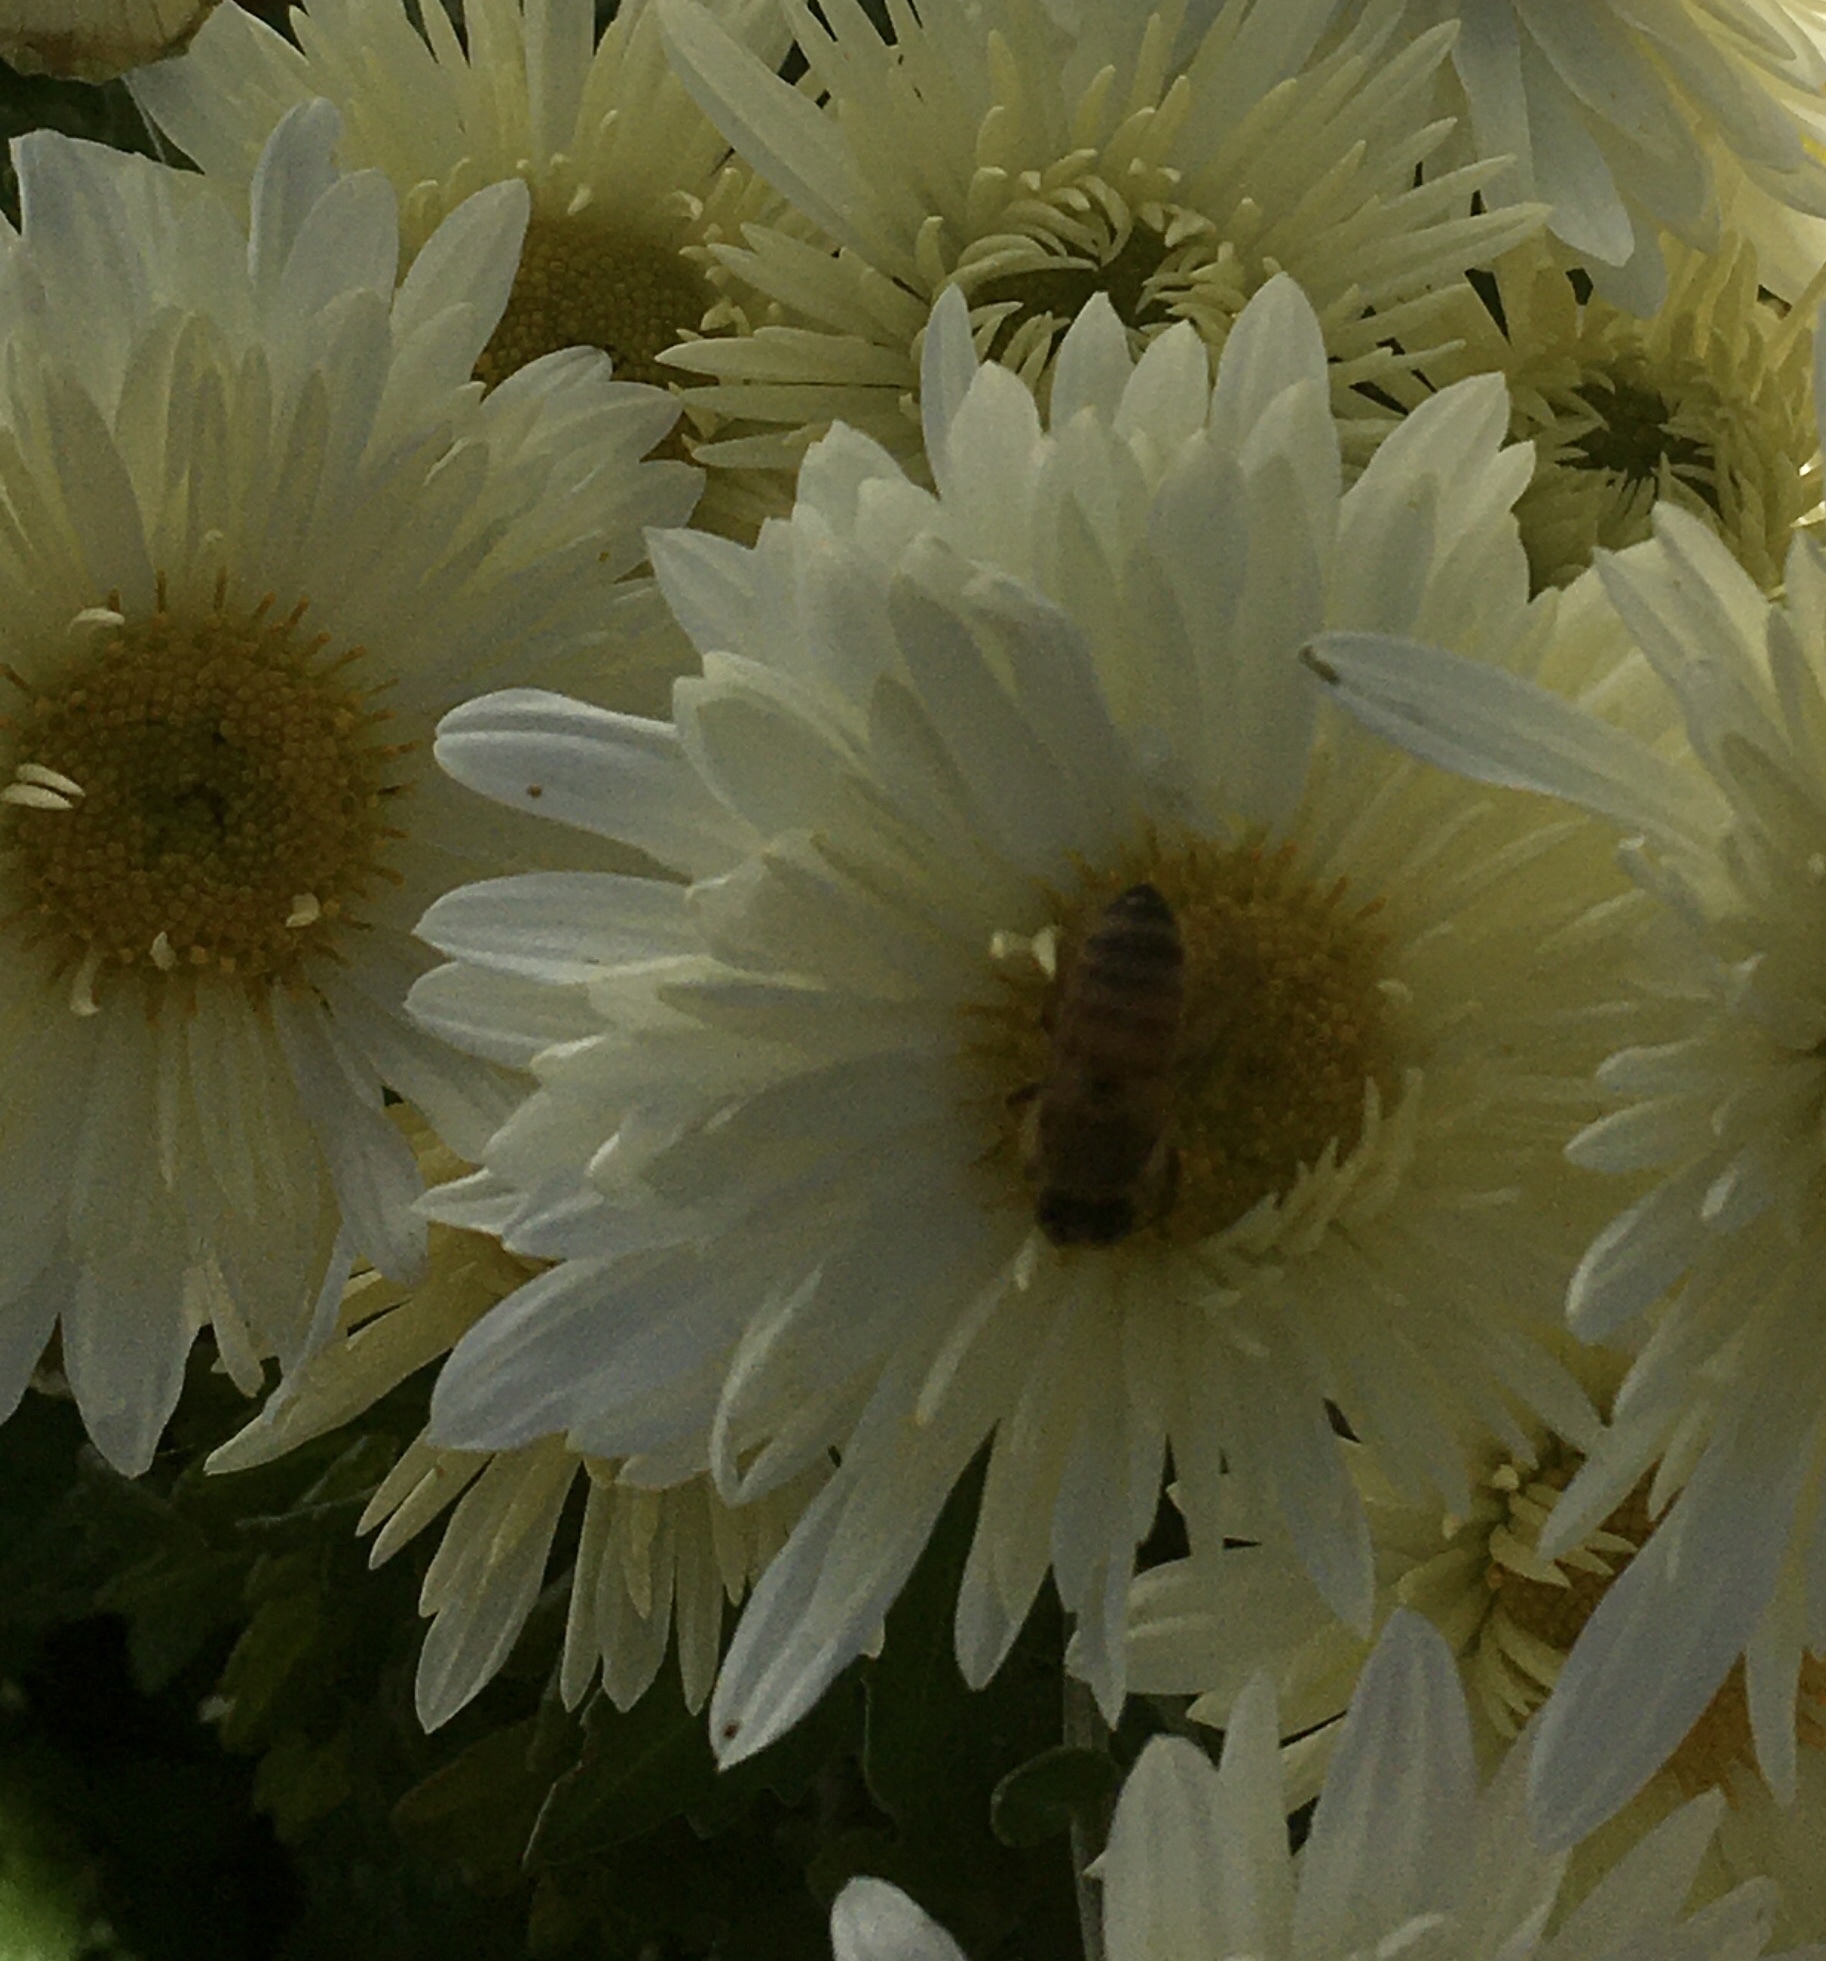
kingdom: Animalia
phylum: Arthropoda
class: Insecta
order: Hymenoptera
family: Apidae
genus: Apis
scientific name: Apis mellifera
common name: Honey bee
